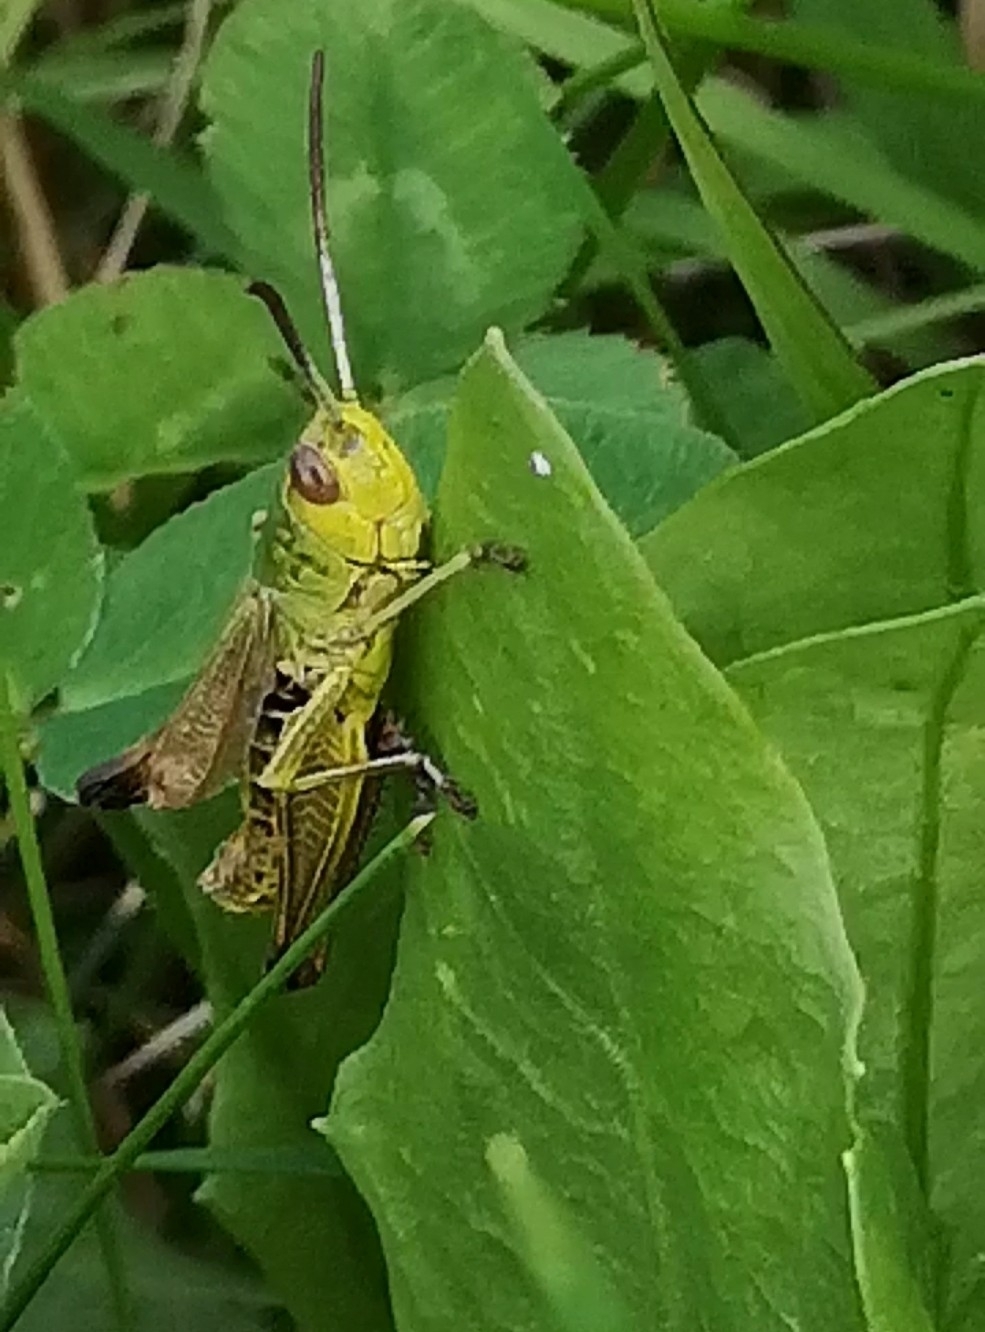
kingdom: Animalia
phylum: Arthropoda
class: Insecta
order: Orthoptera
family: Acrididae
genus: Pseudochorthippus
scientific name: Pseudochorthippus parallelus
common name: Meadow grasshopper
